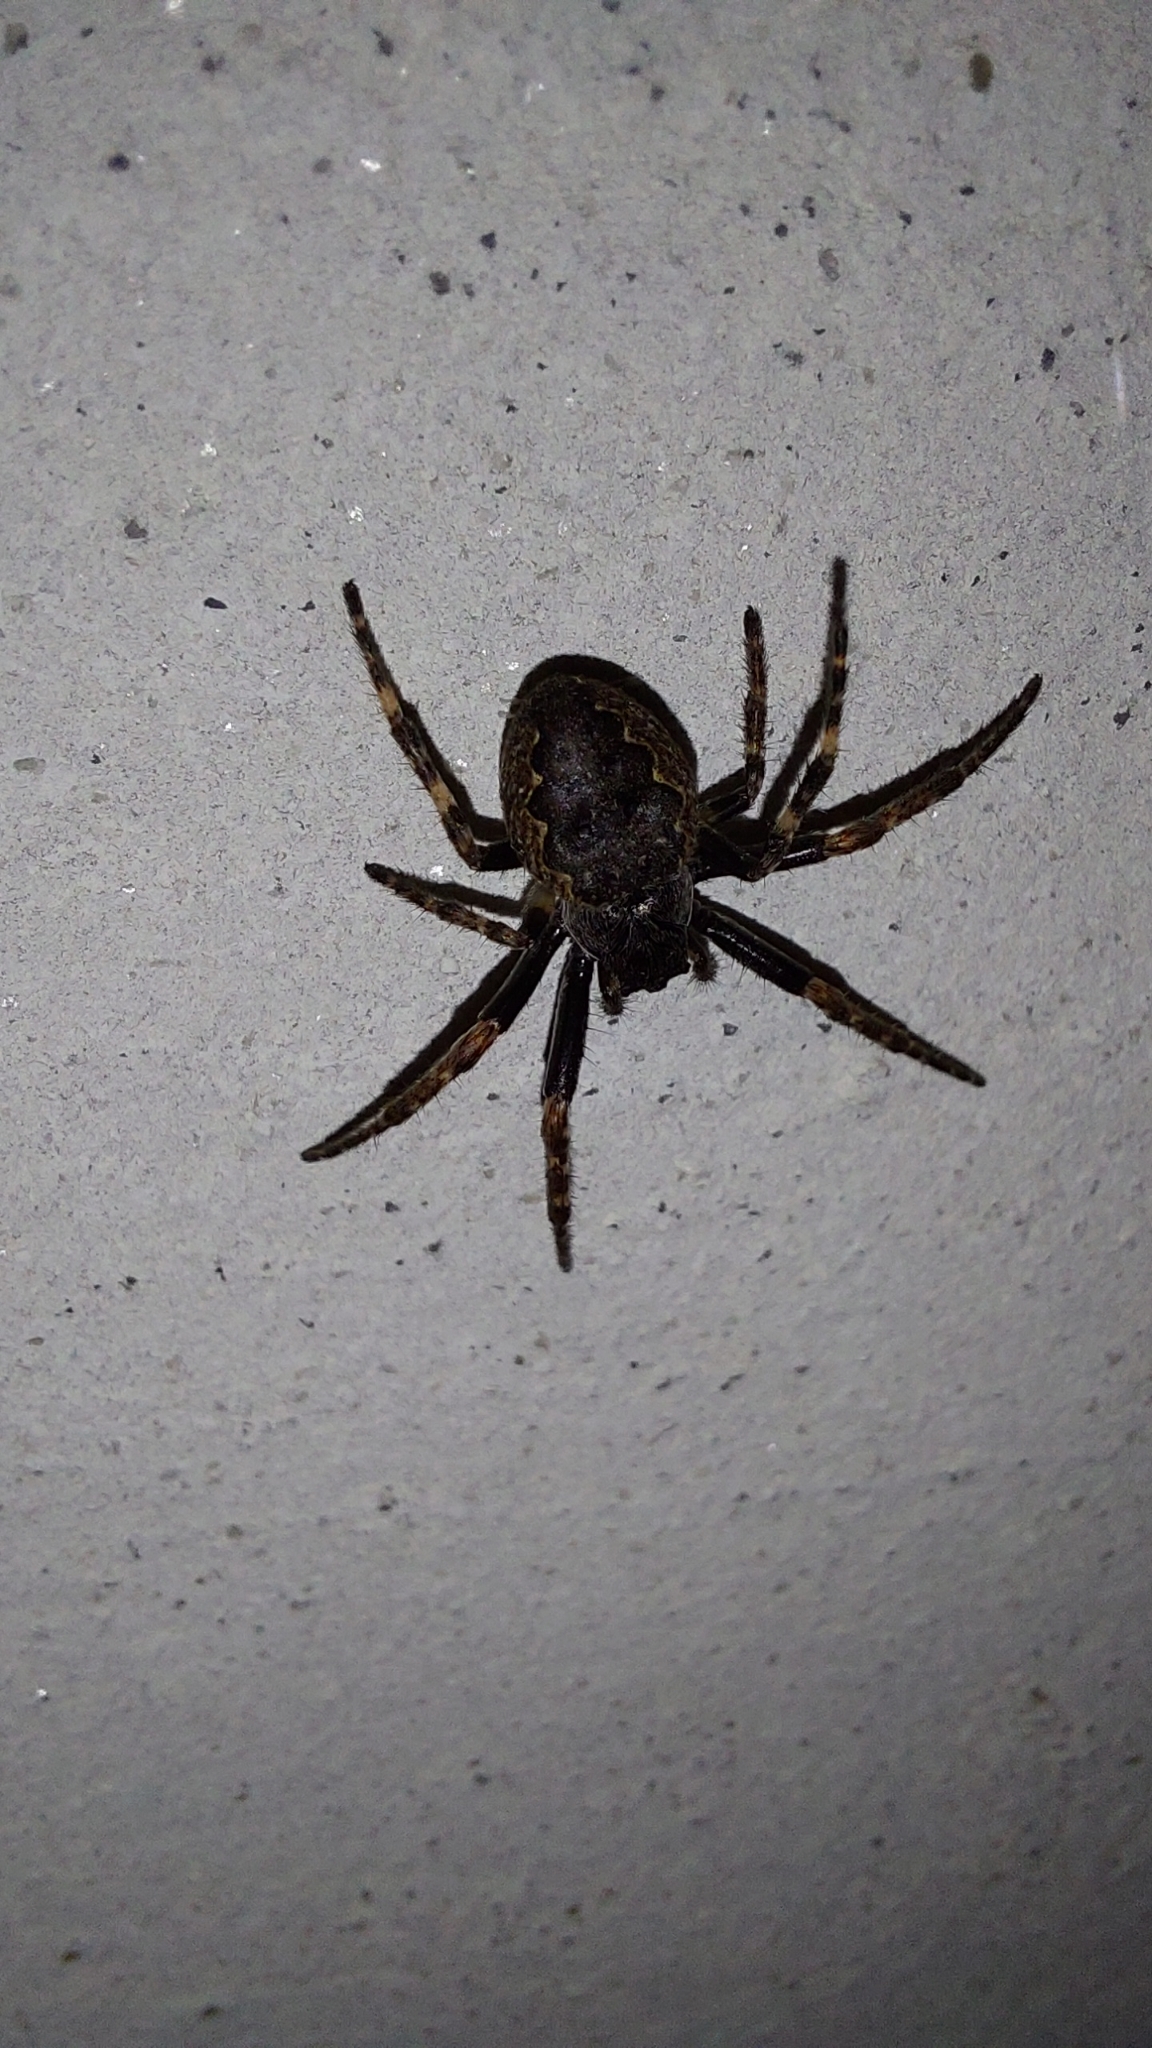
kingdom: Animalia
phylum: Arthropoda
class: Arachnida
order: Araneae
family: Araneidae
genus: Nuctenea
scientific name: Nuctenea umbratica
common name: Toad spider
